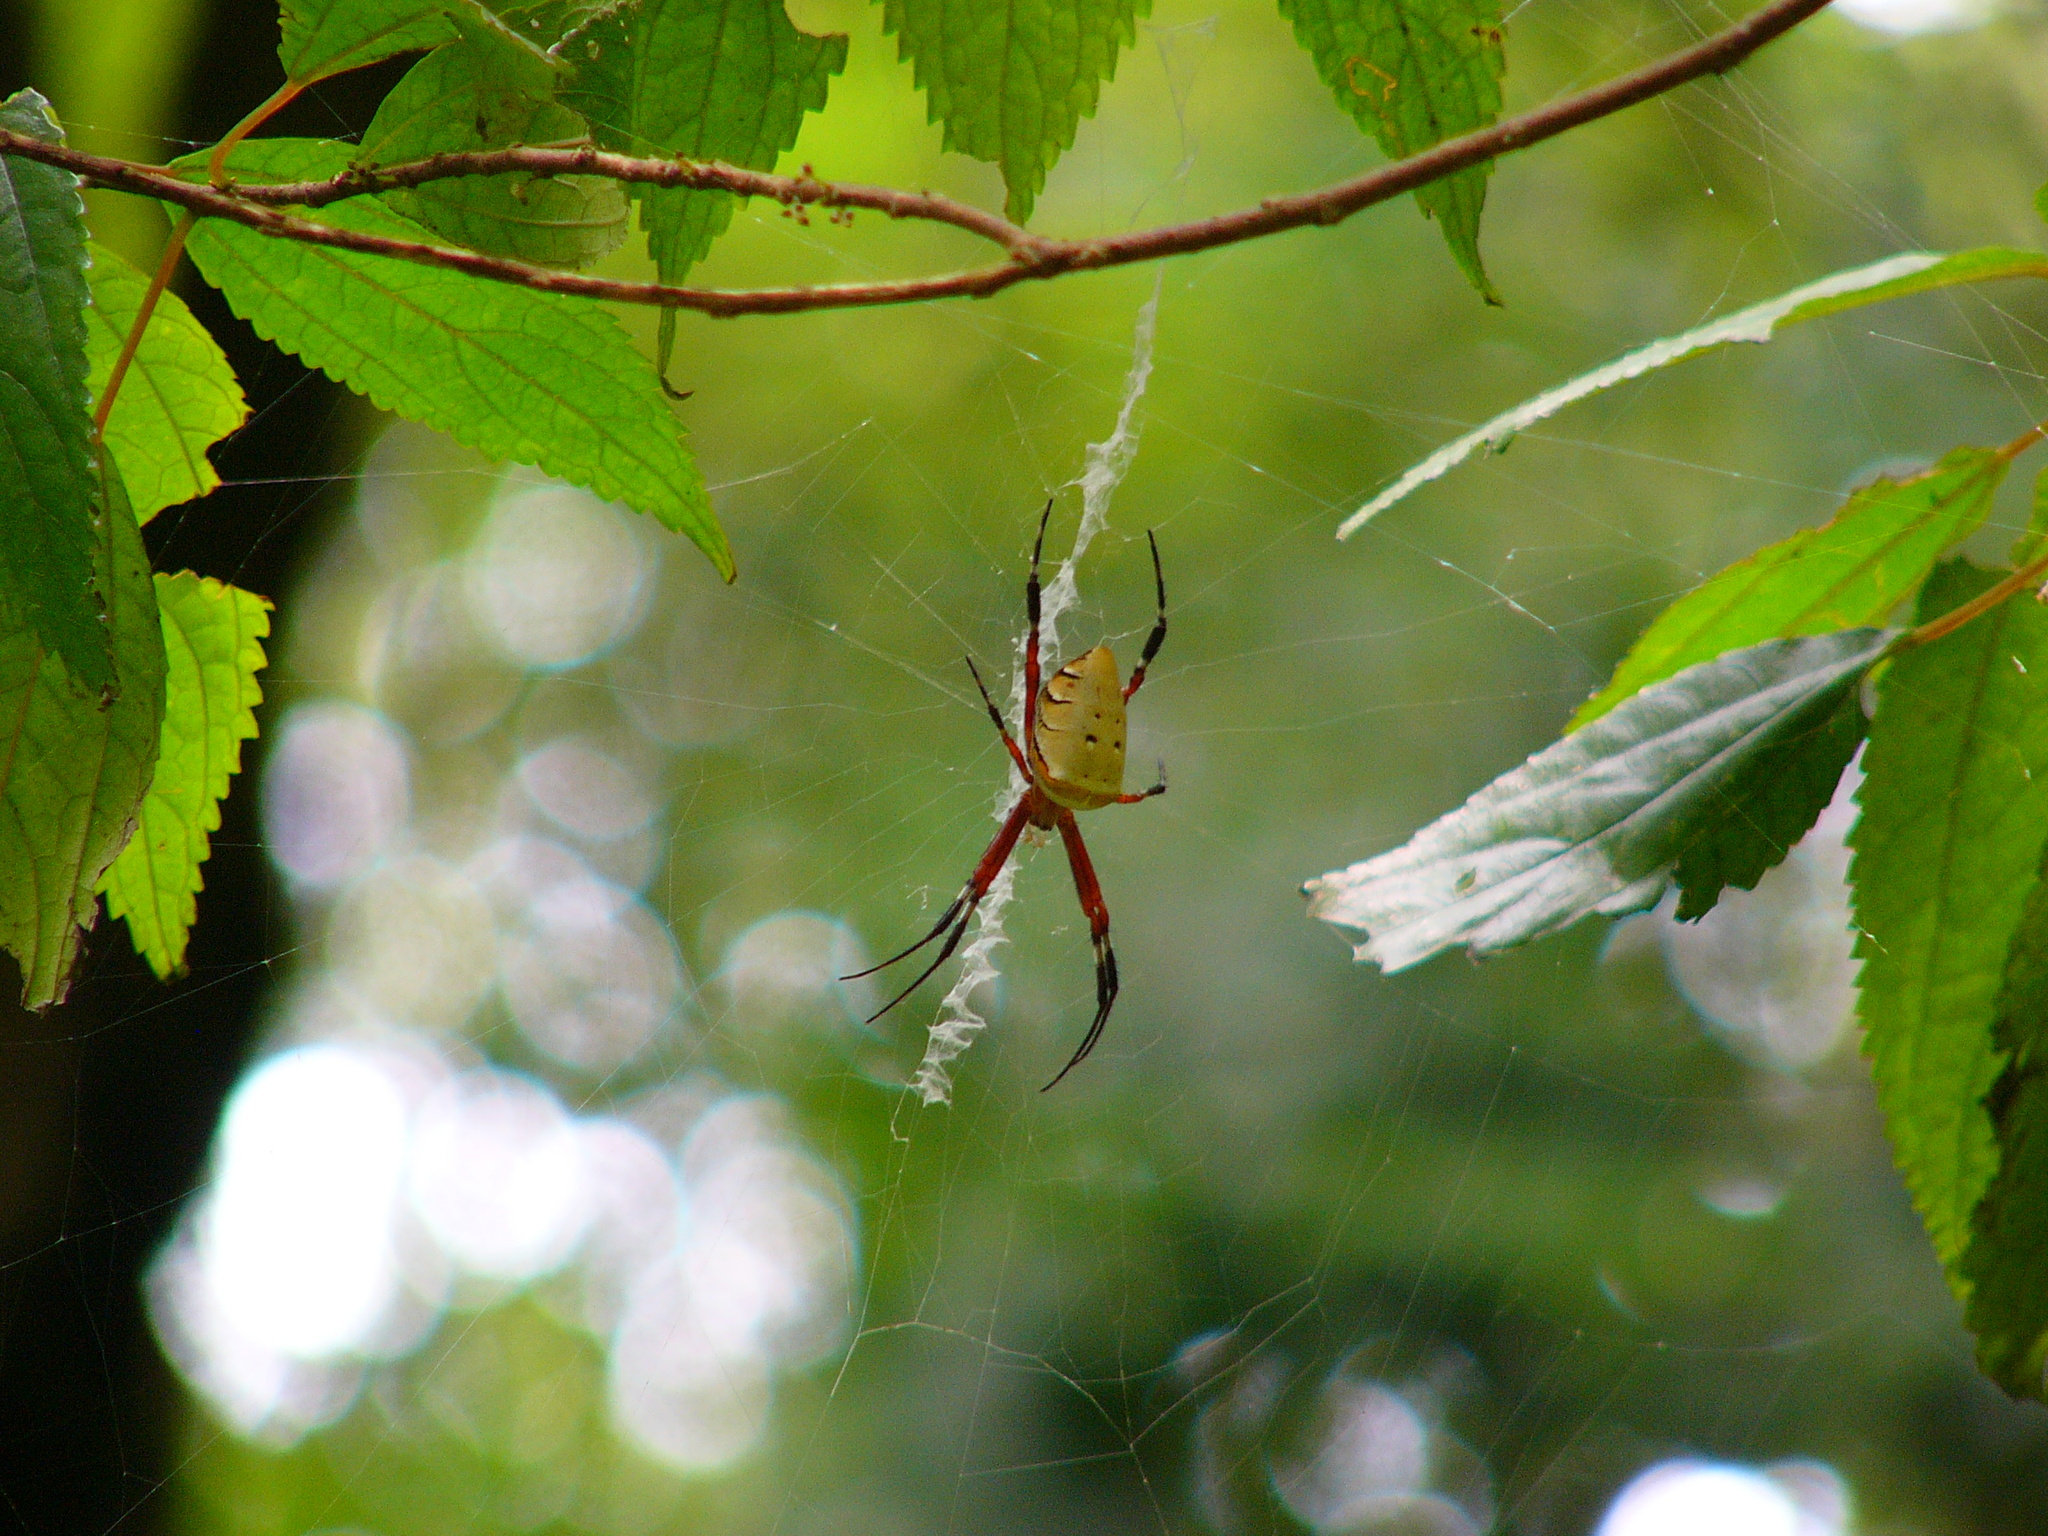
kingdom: Animalia
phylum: Arthropoda
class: Arachnida
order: Araneae
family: Araneidae
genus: Argiope
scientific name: Argiope ocula
